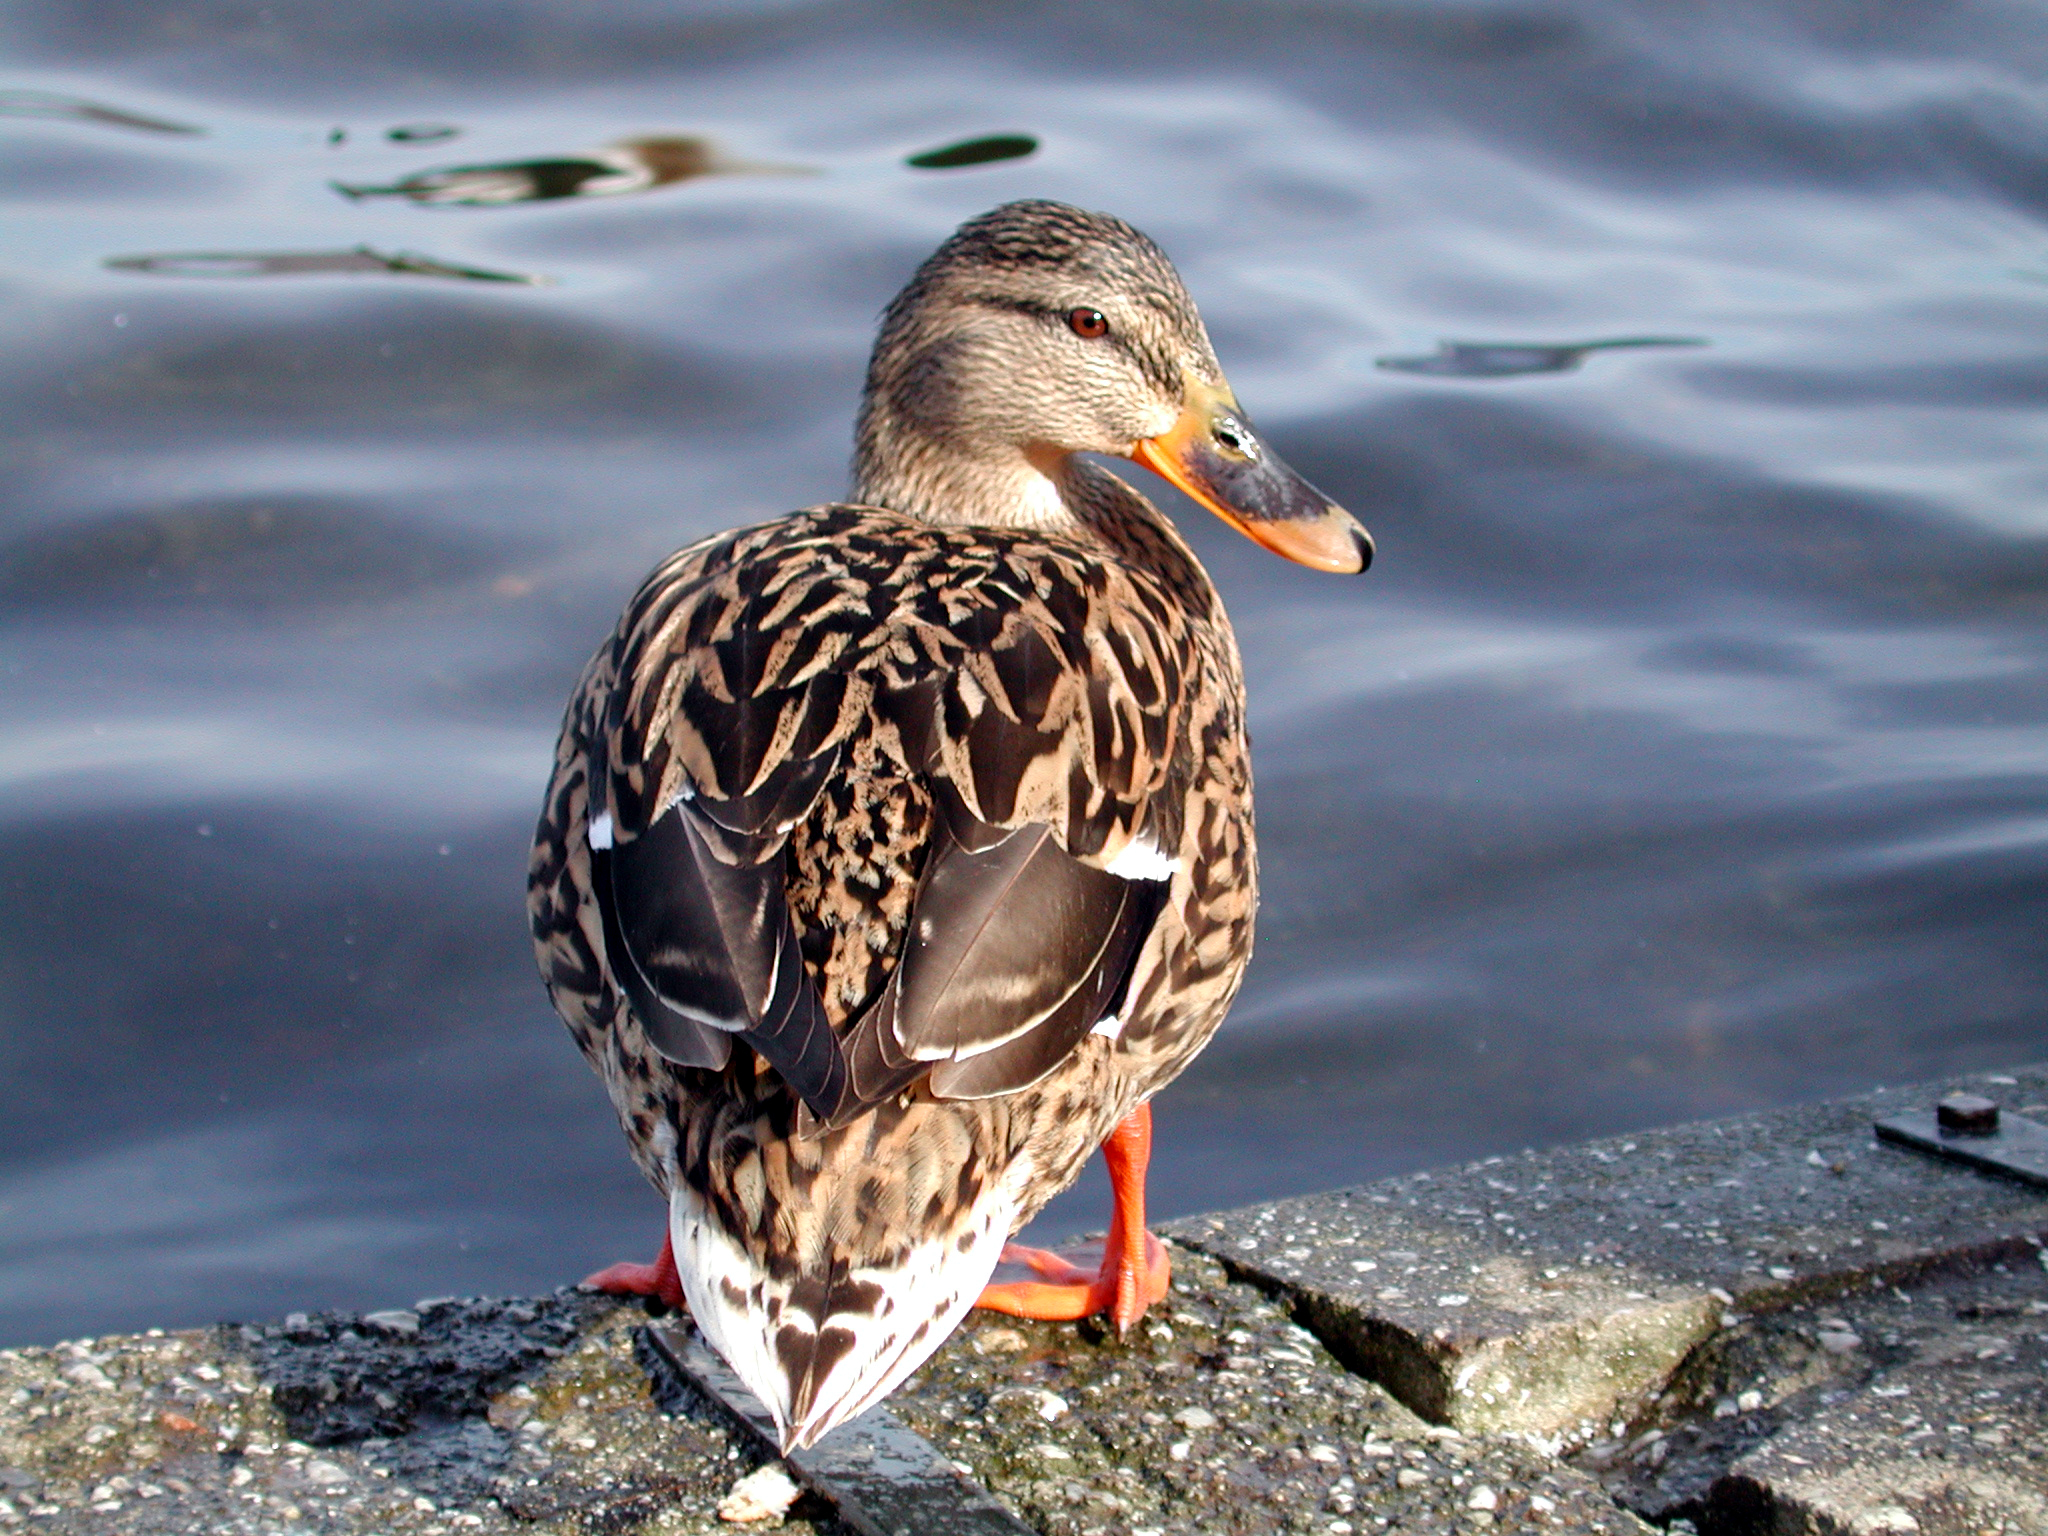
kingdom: Animalia
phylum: Chordata
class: Aves
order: Anseriformes
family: Anatidae
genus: Anas
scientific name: Anas platyrhynchos
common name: Mallard
